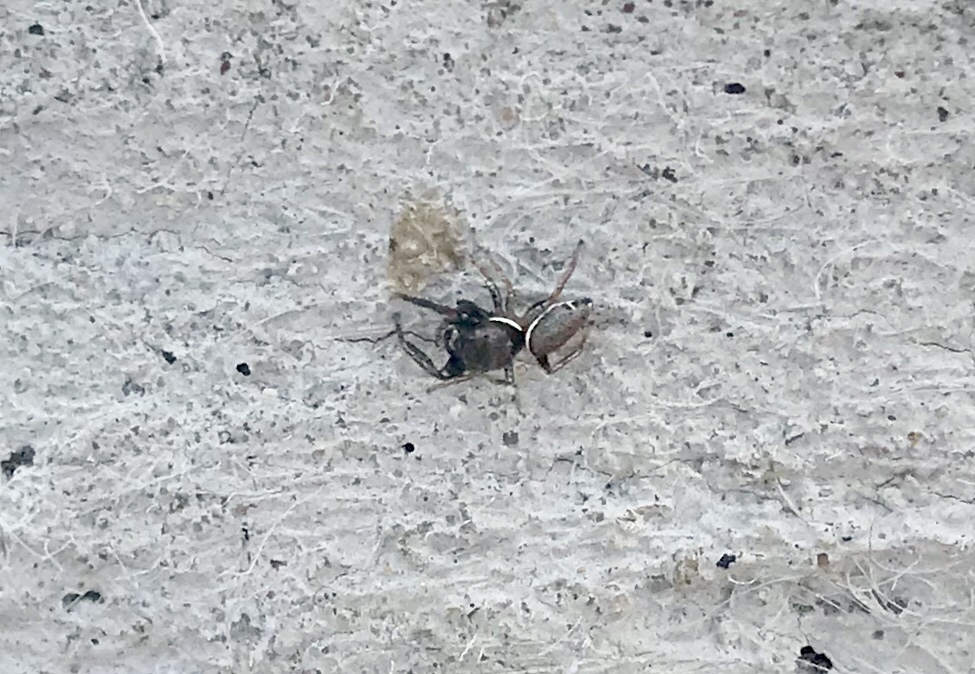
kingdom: Animalia
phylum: Arthropoda
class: Arachnida
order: Araneae
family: Salticidae
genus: Sassacus
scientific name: Sassacus vitis
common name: Jumping spiders
